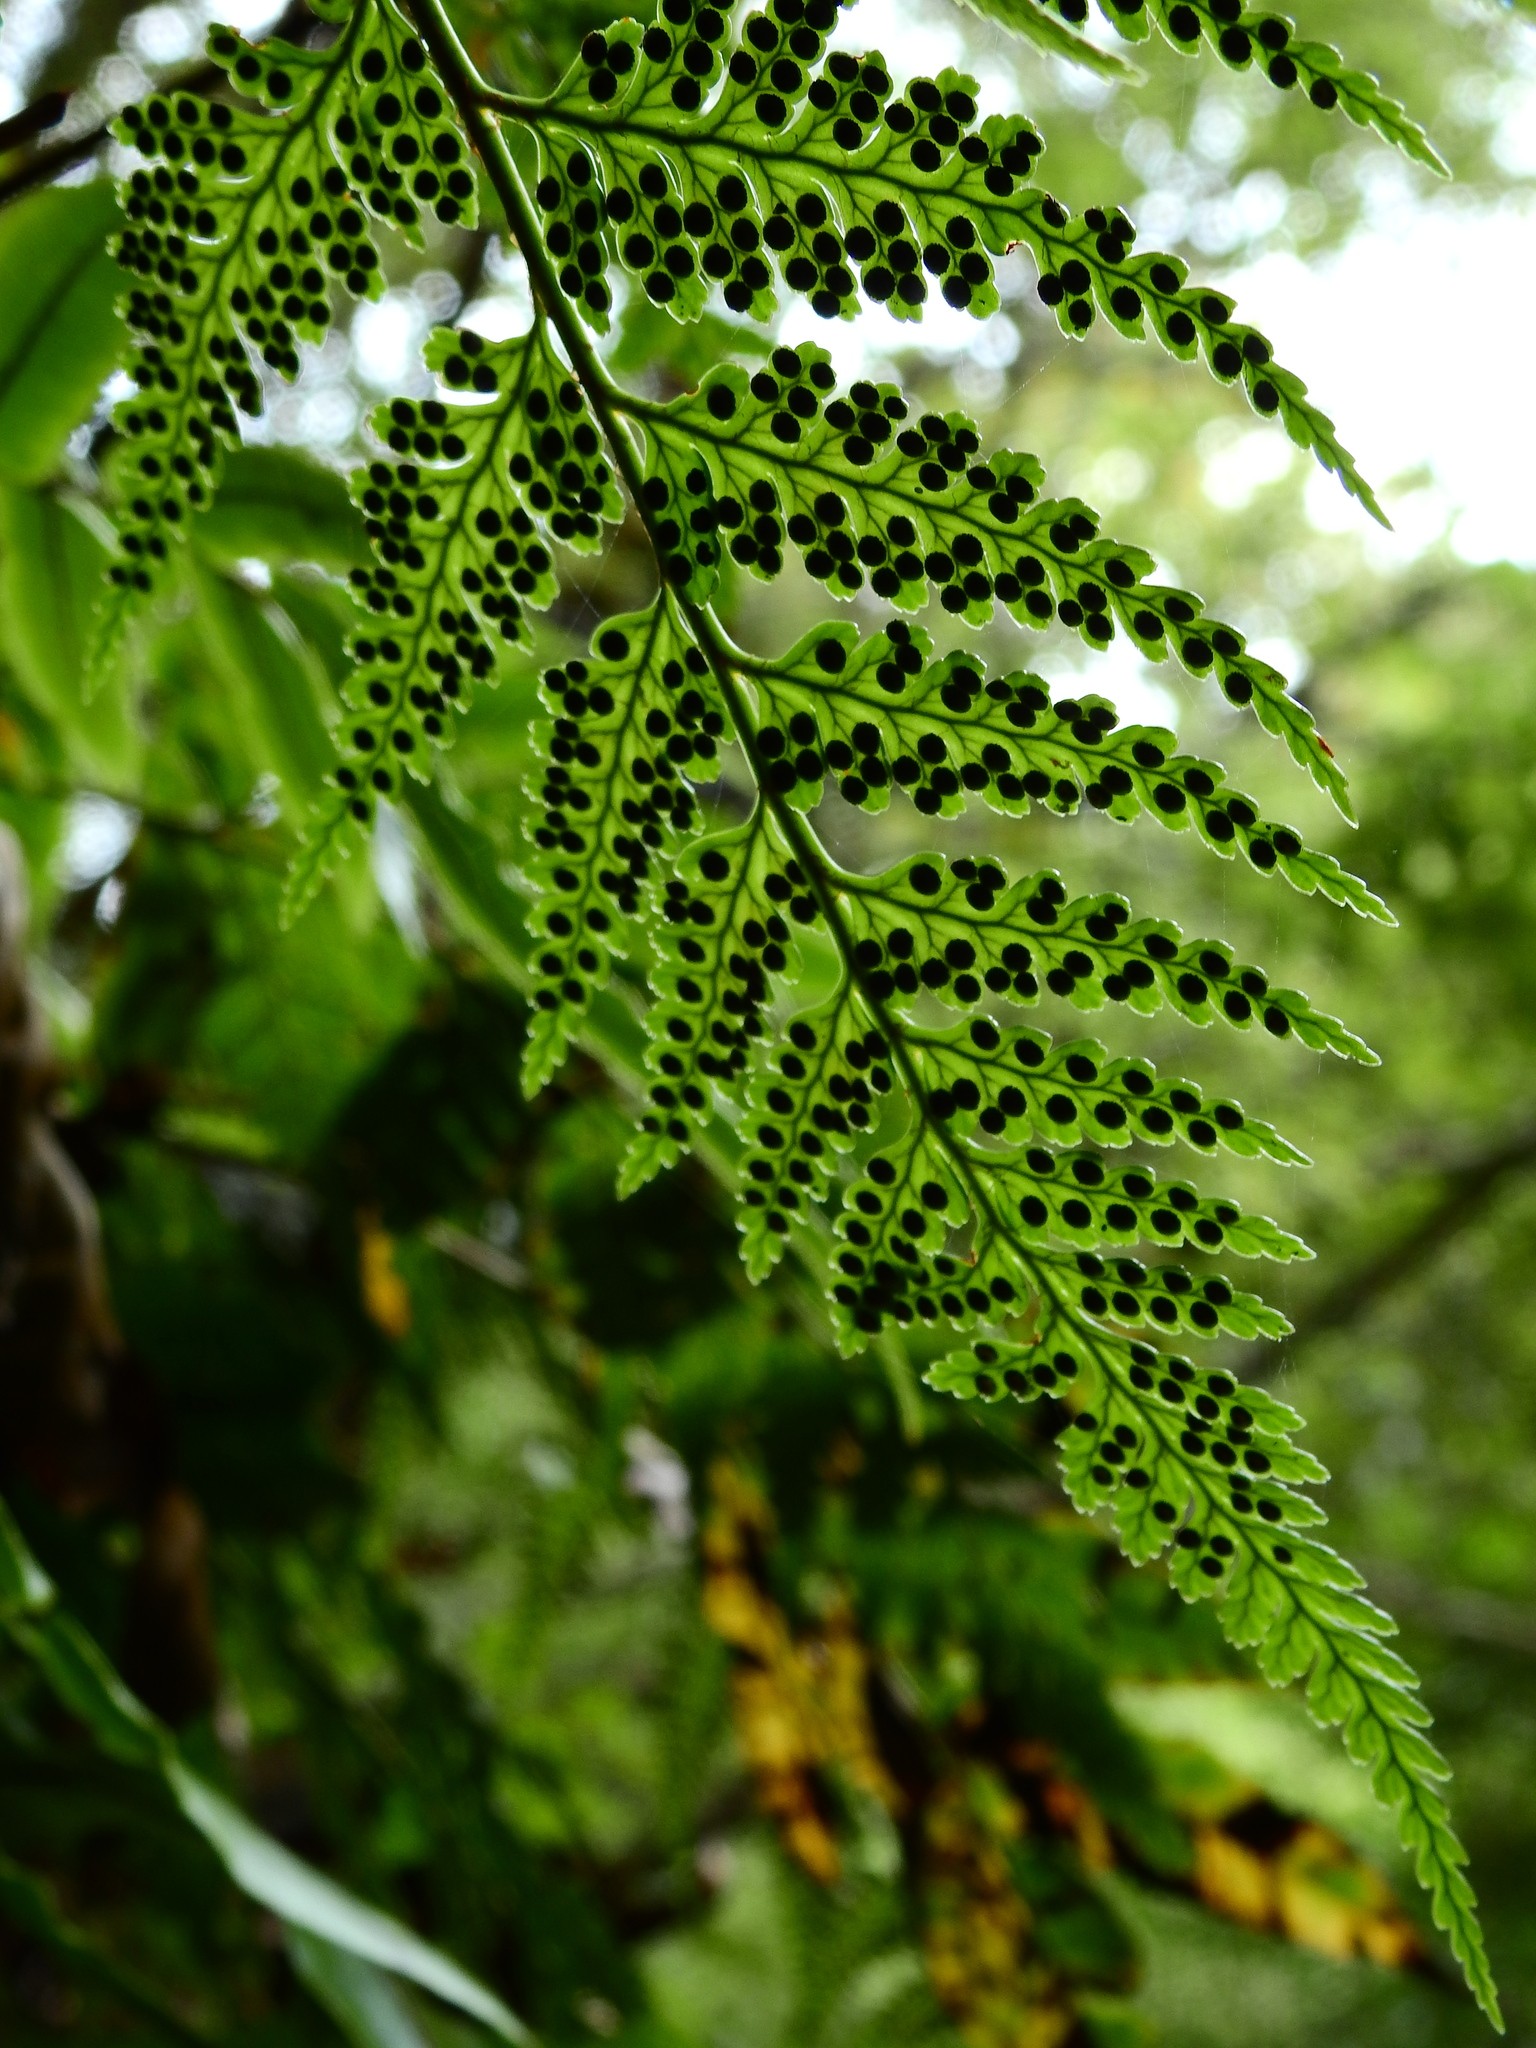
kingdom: Plantae
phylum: Tracheophyta
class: Polypodiopsida
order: Polypodiales
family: Dryopteridaceae
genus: Rumohra
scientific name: Rumohra adiantiformis
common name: Leather fern
